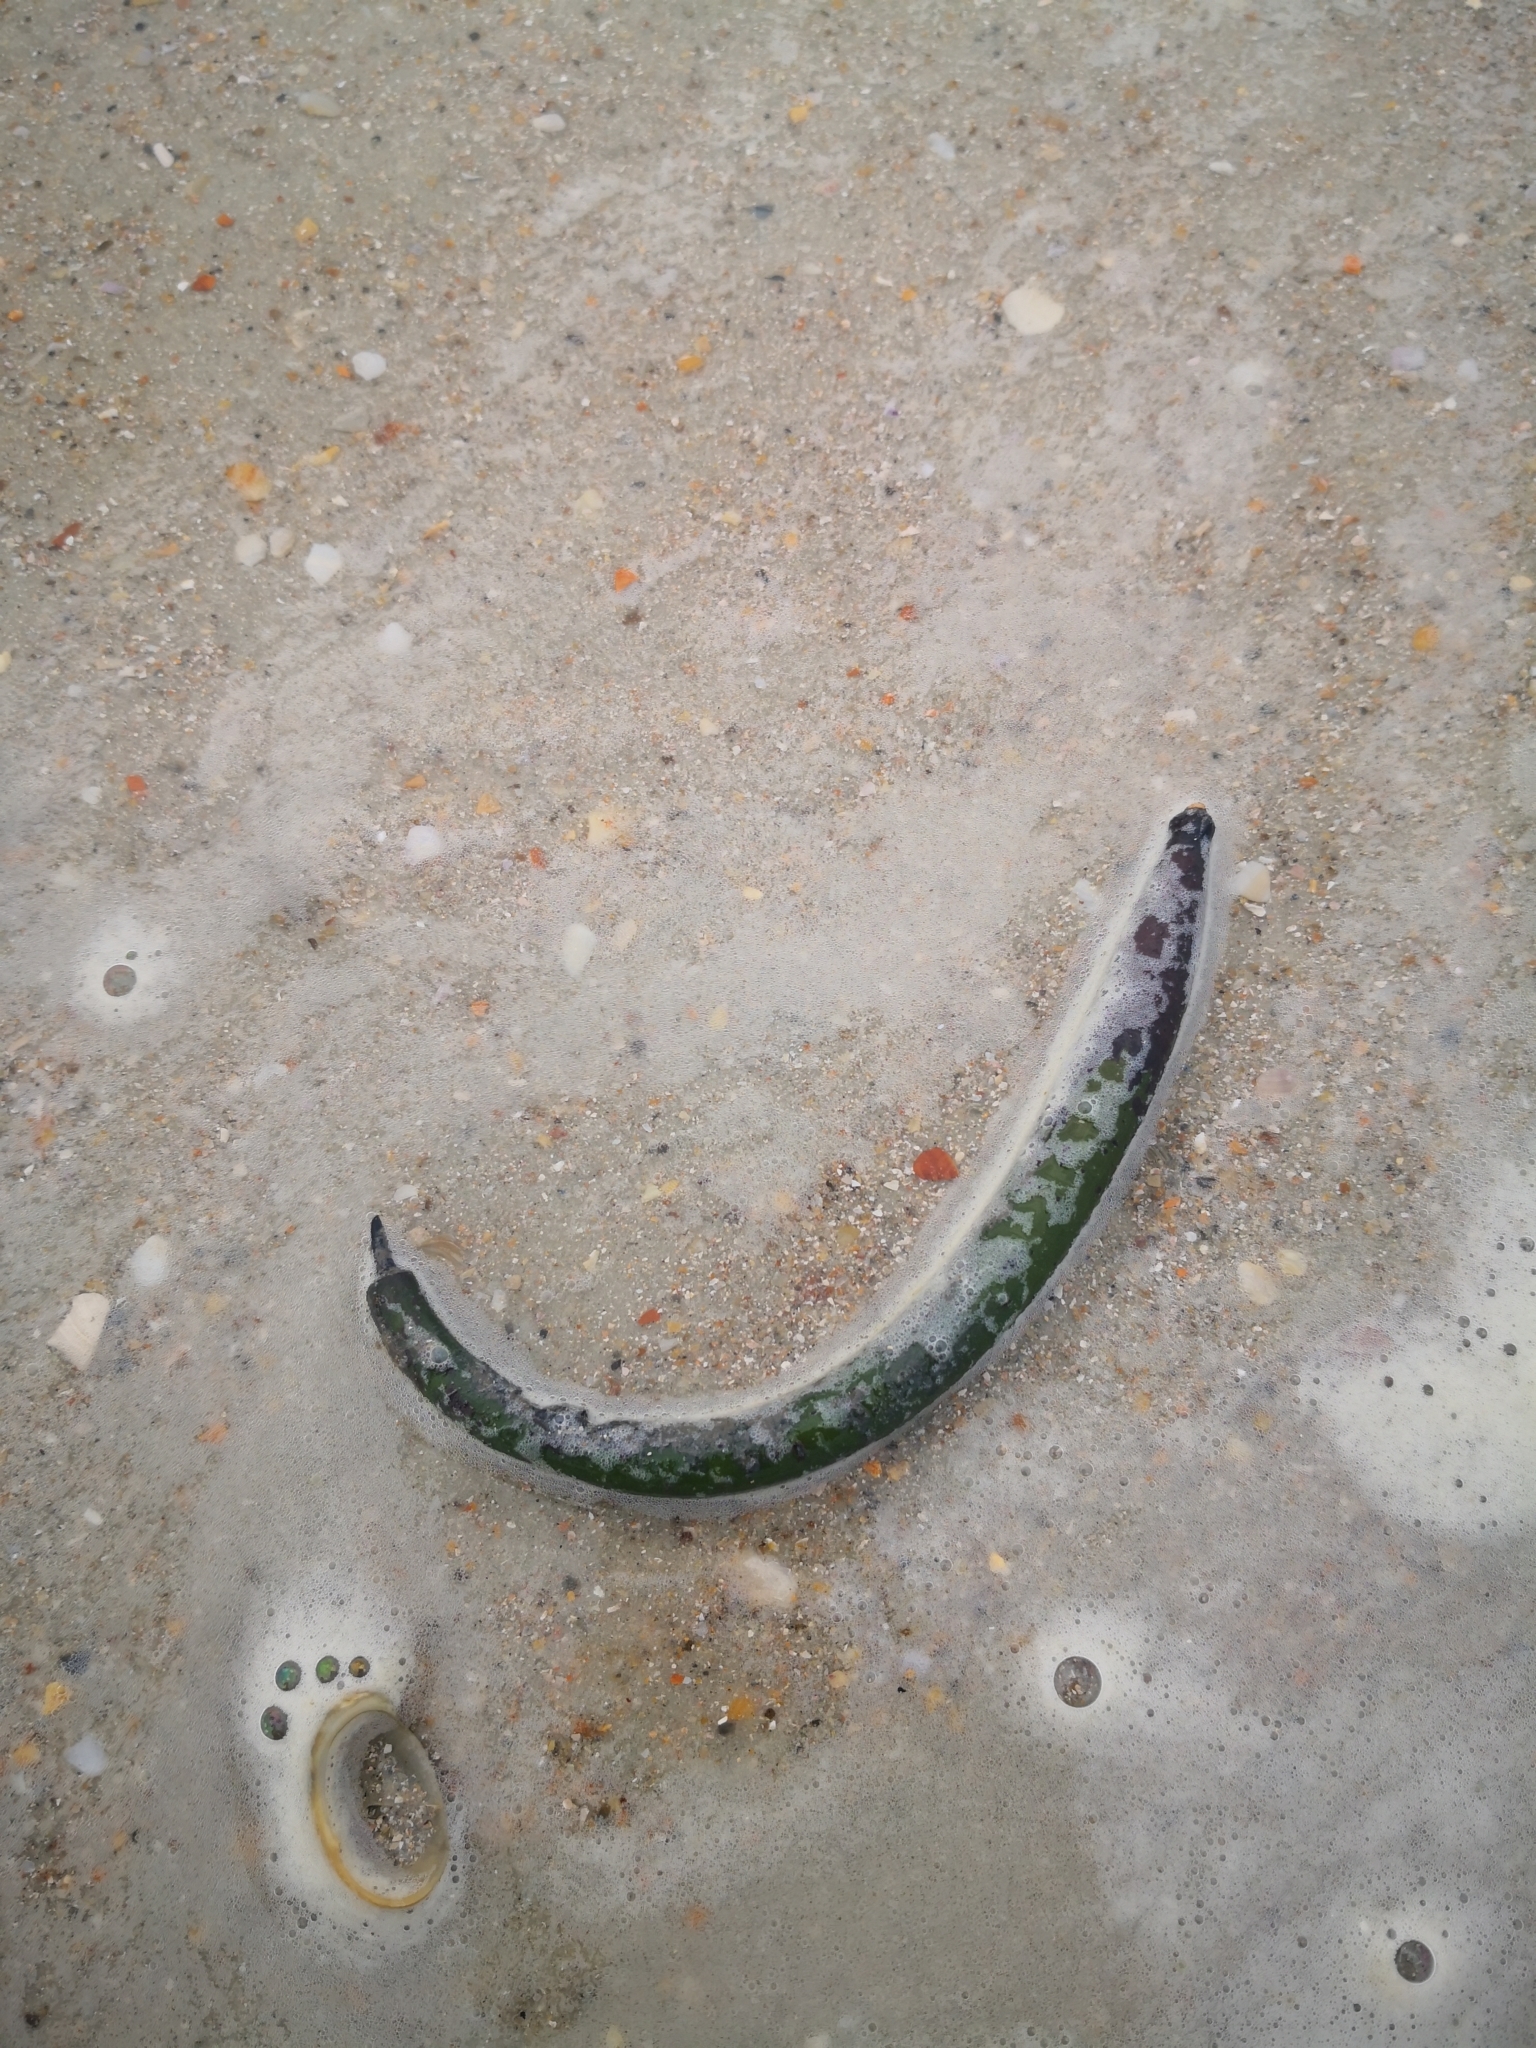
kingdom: Plantae
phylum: Tracheophyta
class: Magnoliopsida
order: Malpighiales
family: Rhizophoraceae
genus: Rhizophora
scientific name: Rhizophora mangle
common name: Red mangrove
